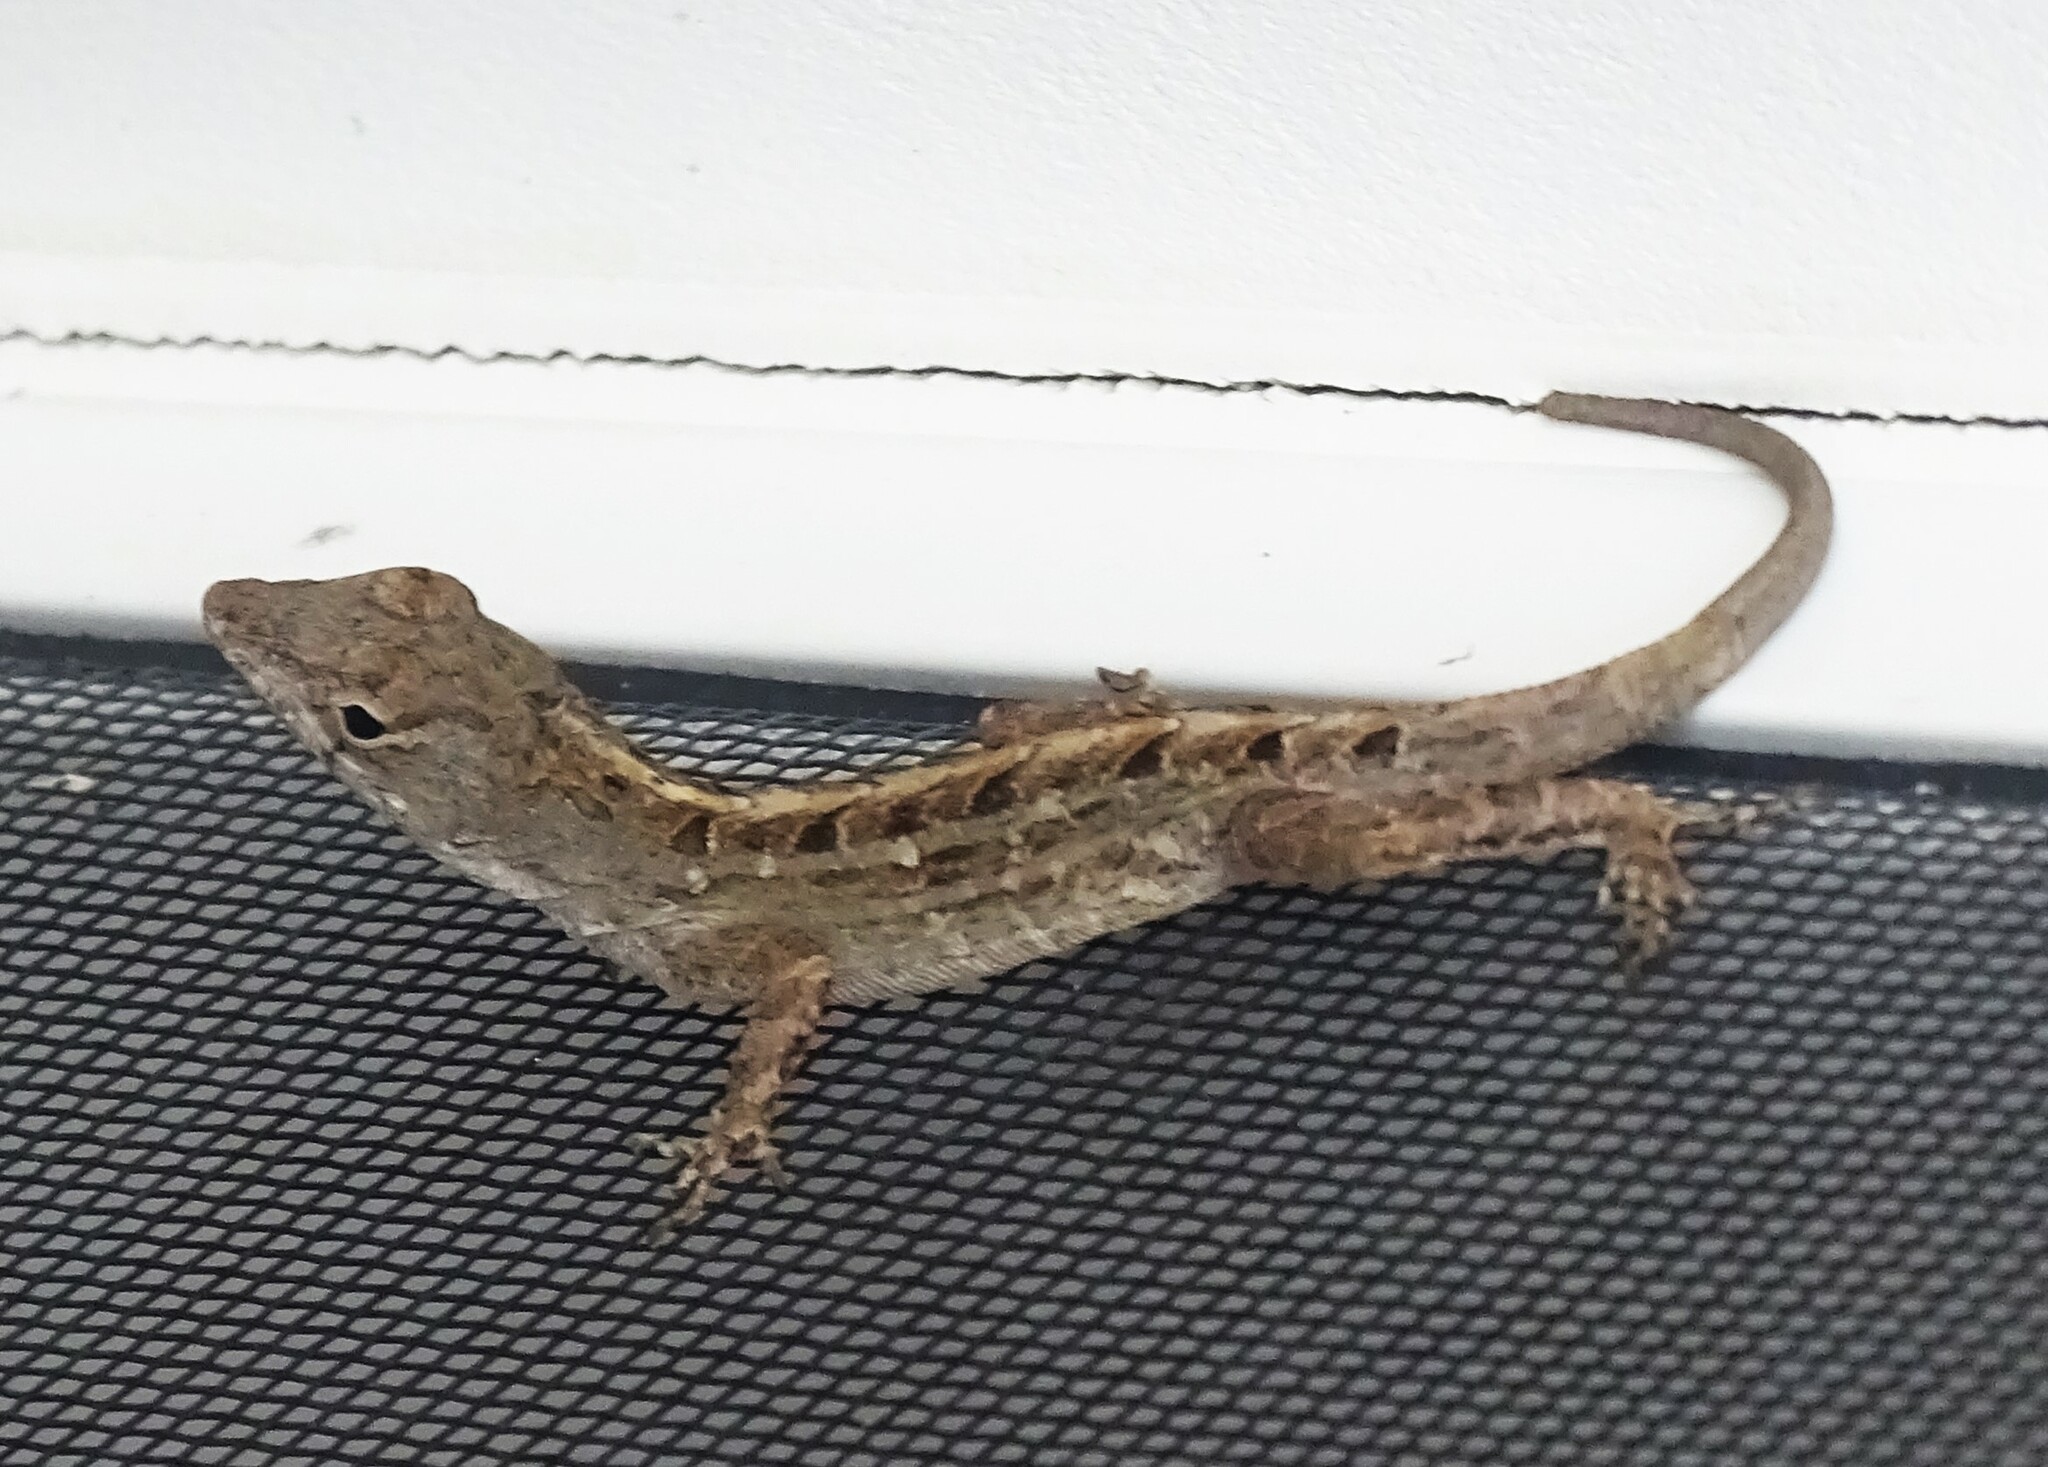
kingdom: Animalia
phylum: Chordata
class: Squamata
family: Dactyloidae
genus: Anolis
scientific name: Anolis sagrei
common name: Brown anole
